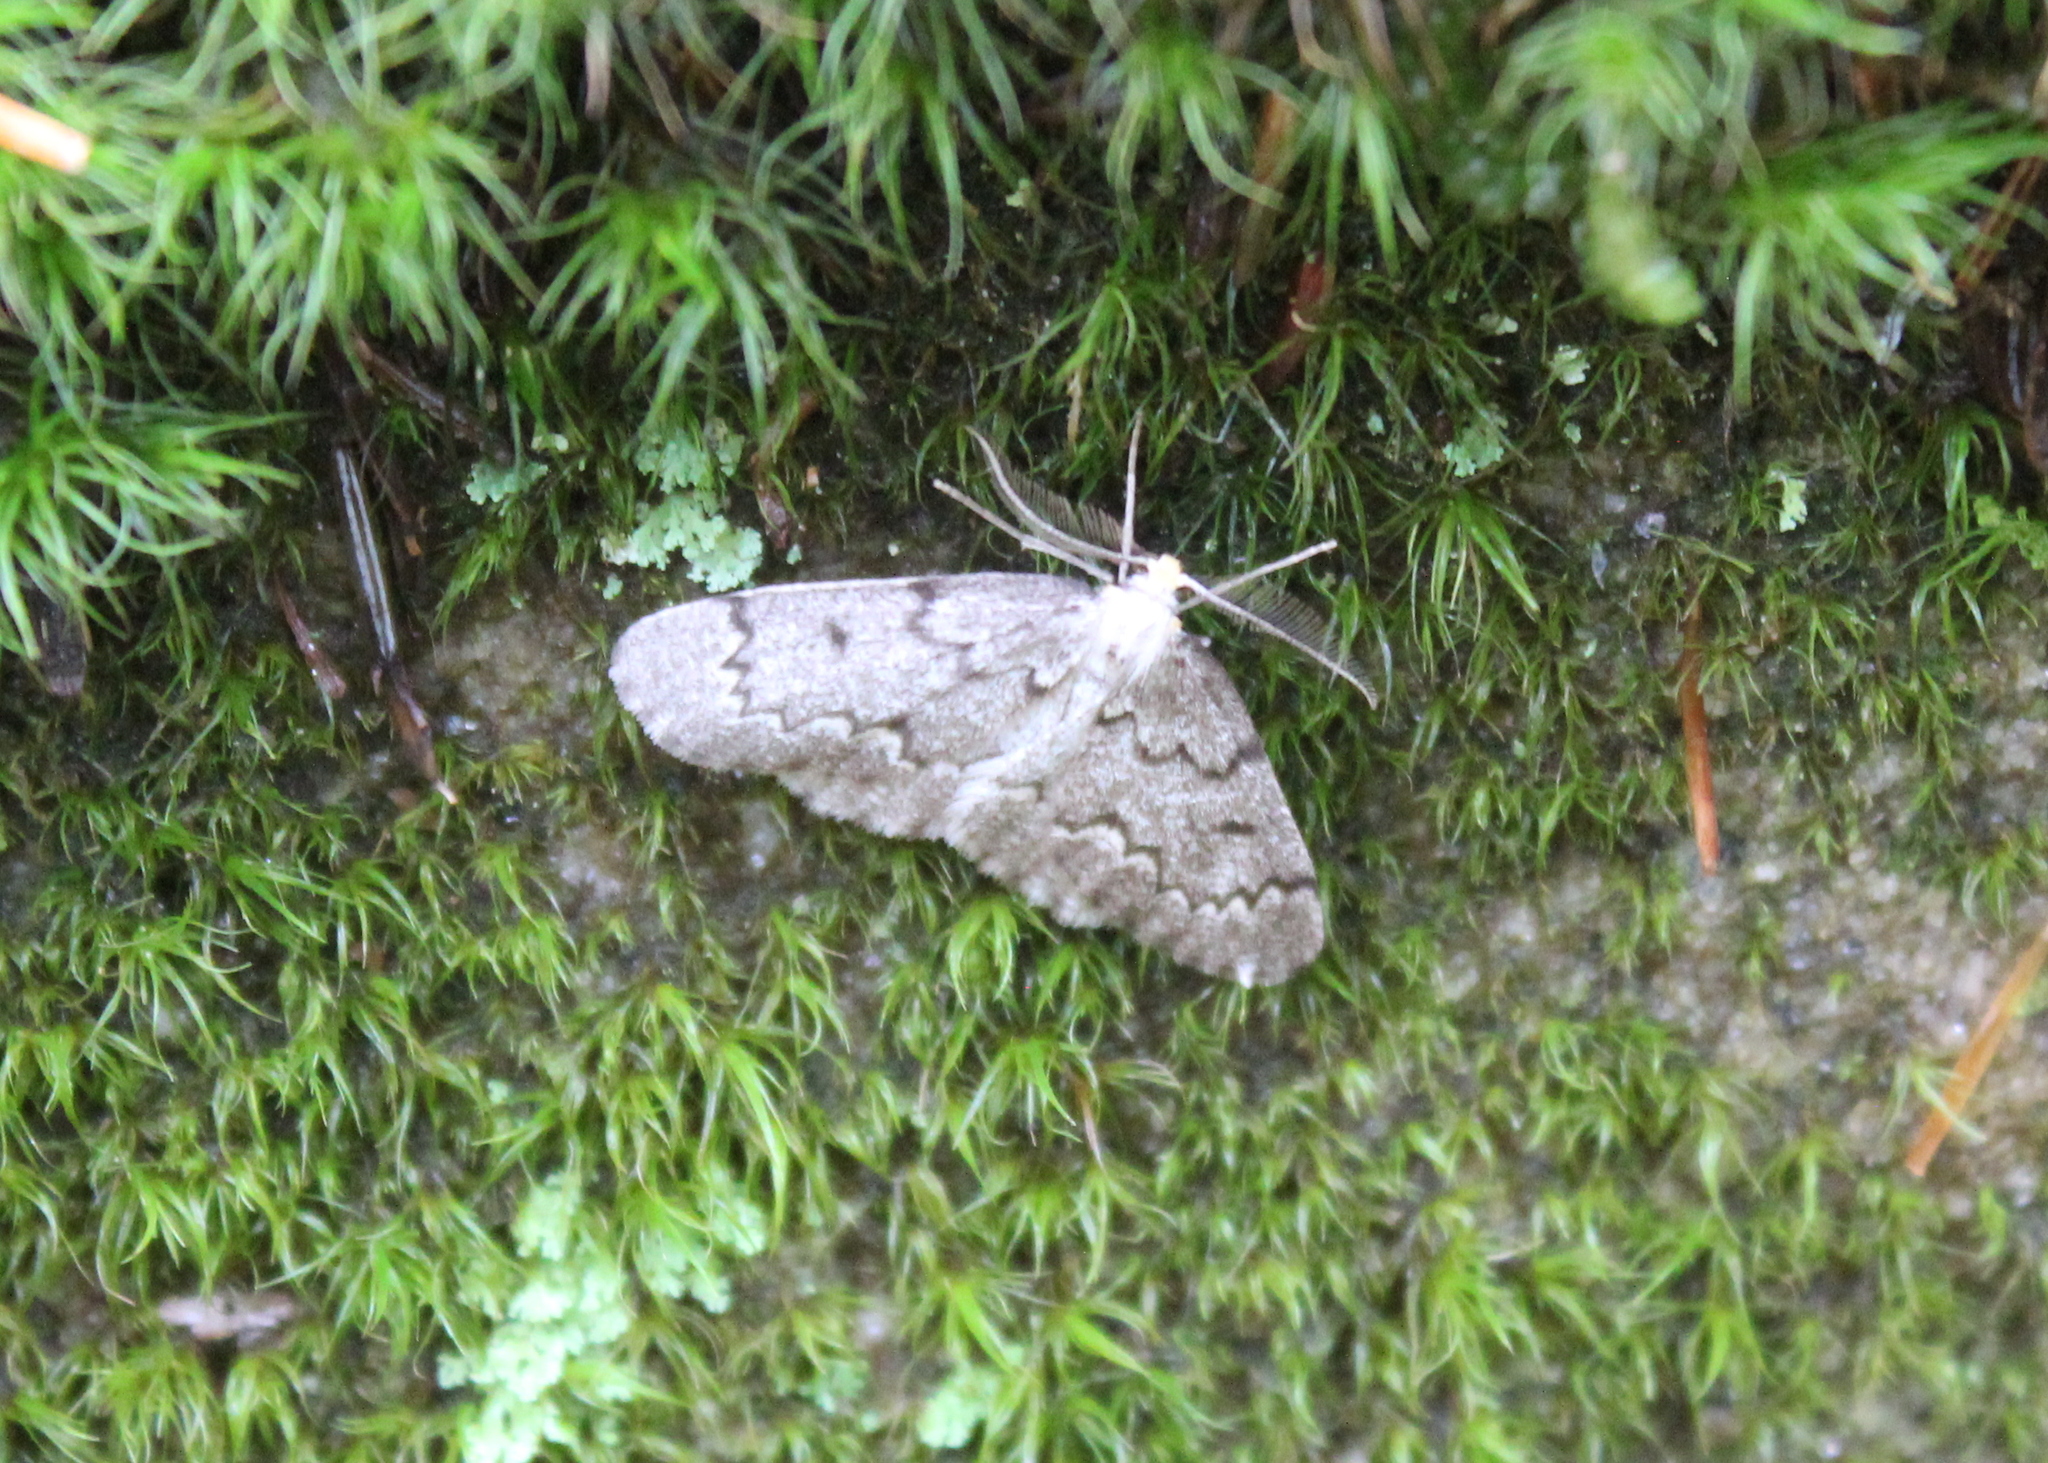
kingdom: Animalia
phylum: Arthropoda
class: Insecta
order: Lepidoptera
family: Geometridae
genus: Nepytia
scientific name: Nepytia canosaria
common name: False hemlock looper
